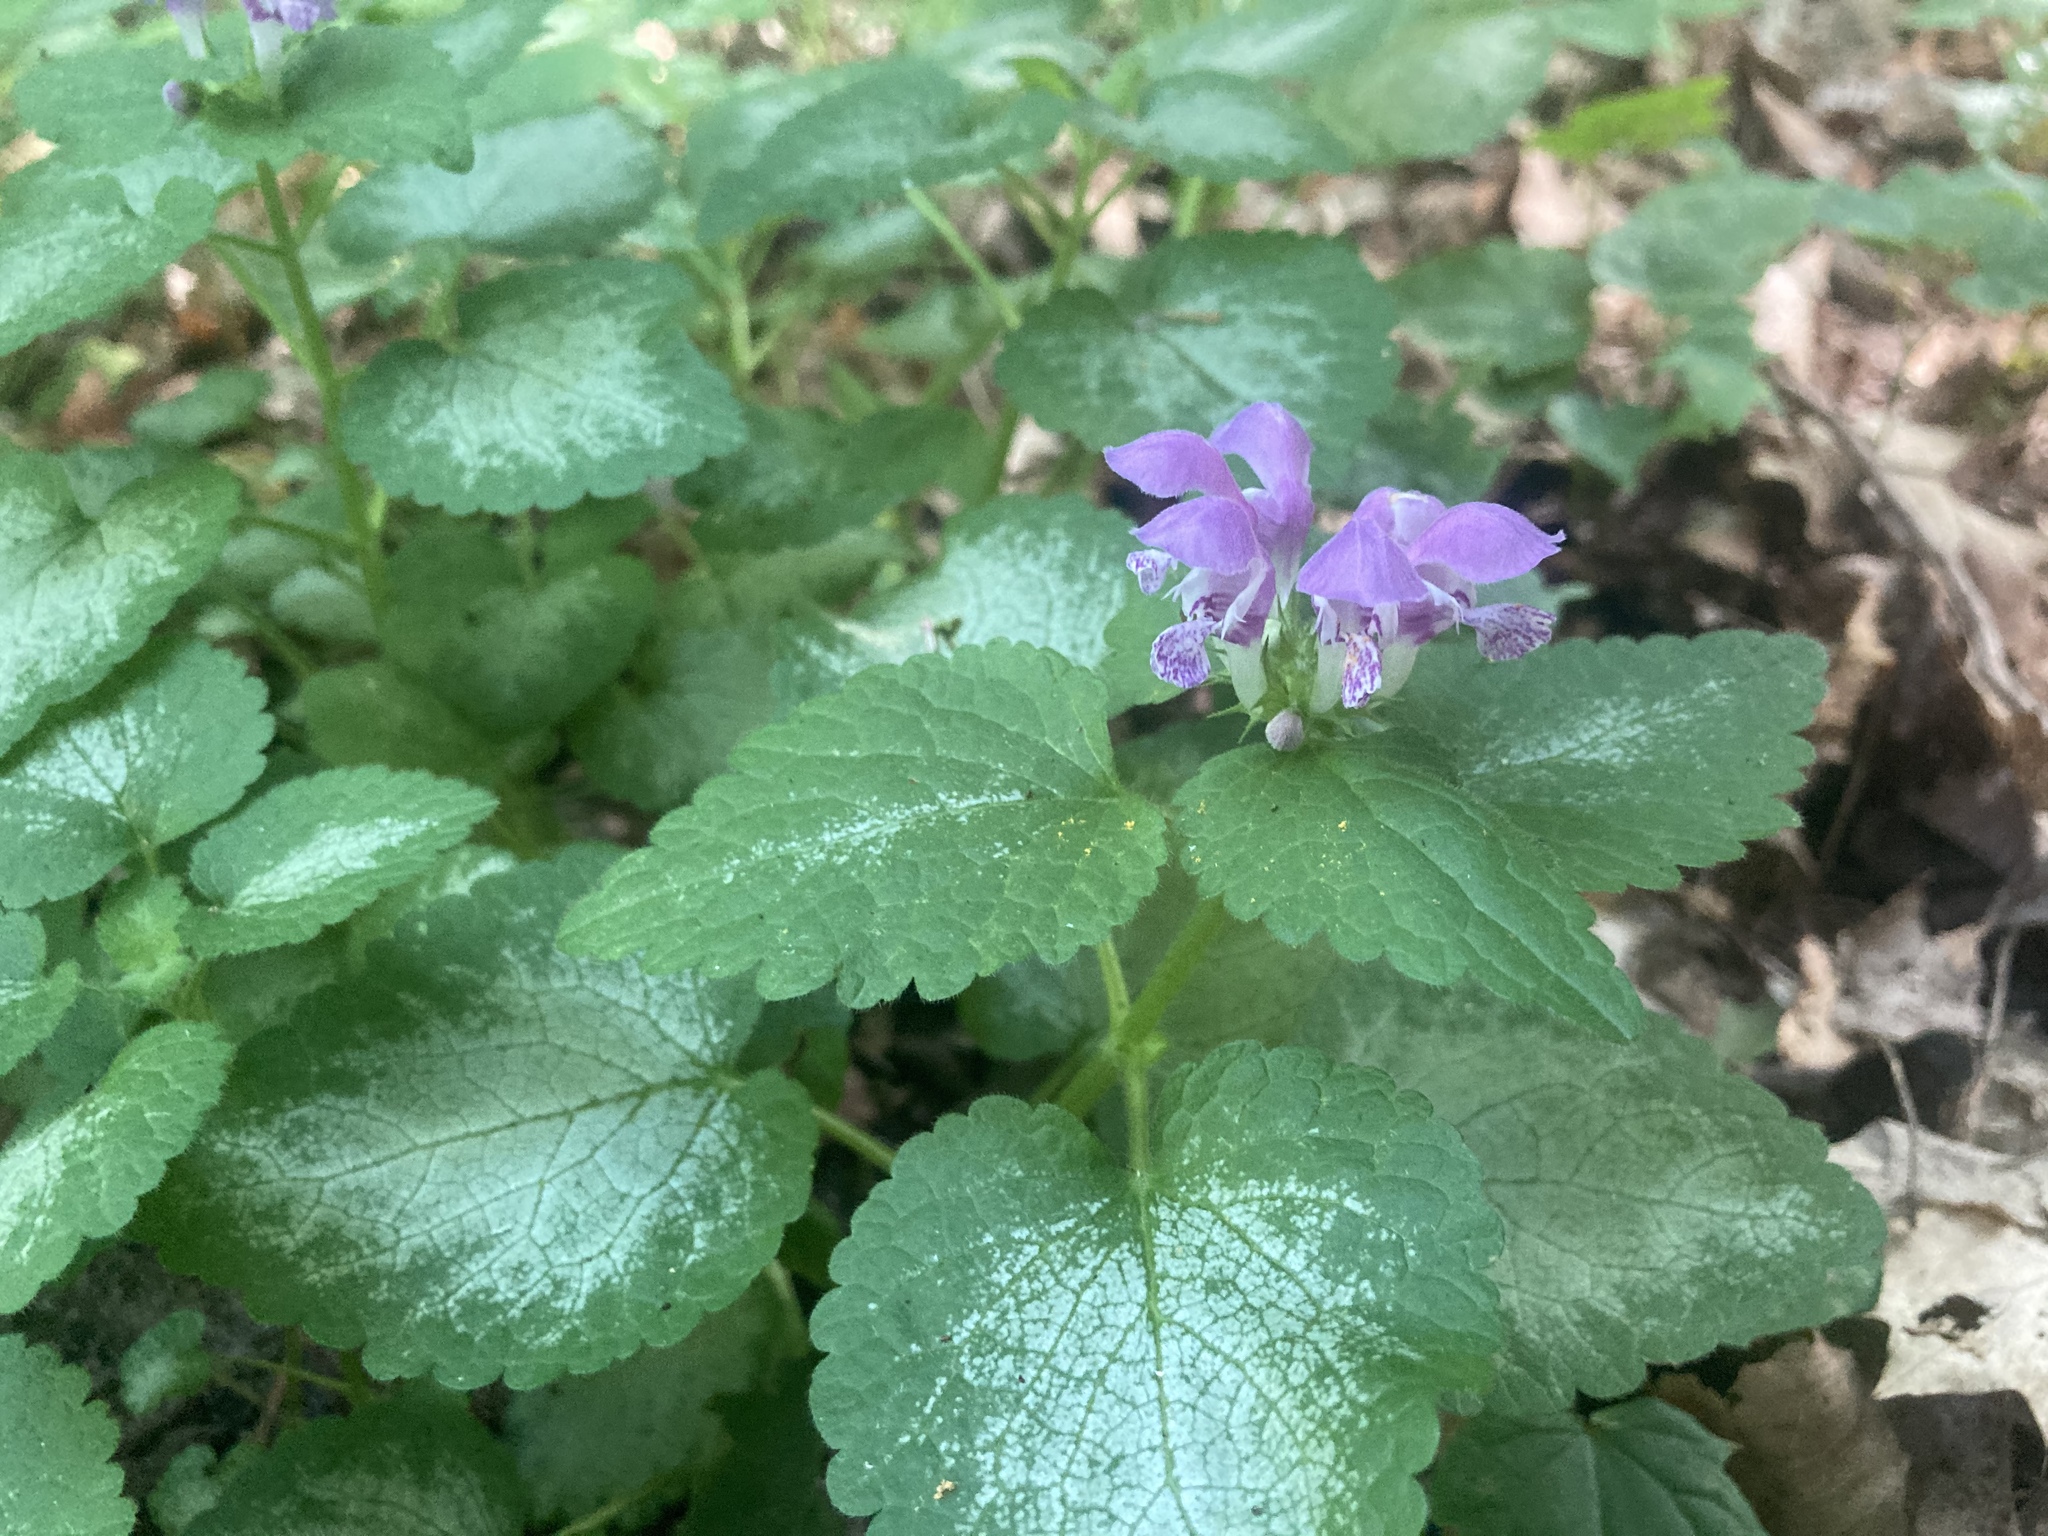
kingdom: Plantae
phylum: Tracheophyta
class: Magnoliopsida
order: Lamiales
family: Lamiaceae
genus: Lamium
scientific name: Lamium maculatum
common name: Spotted dead-nettle
